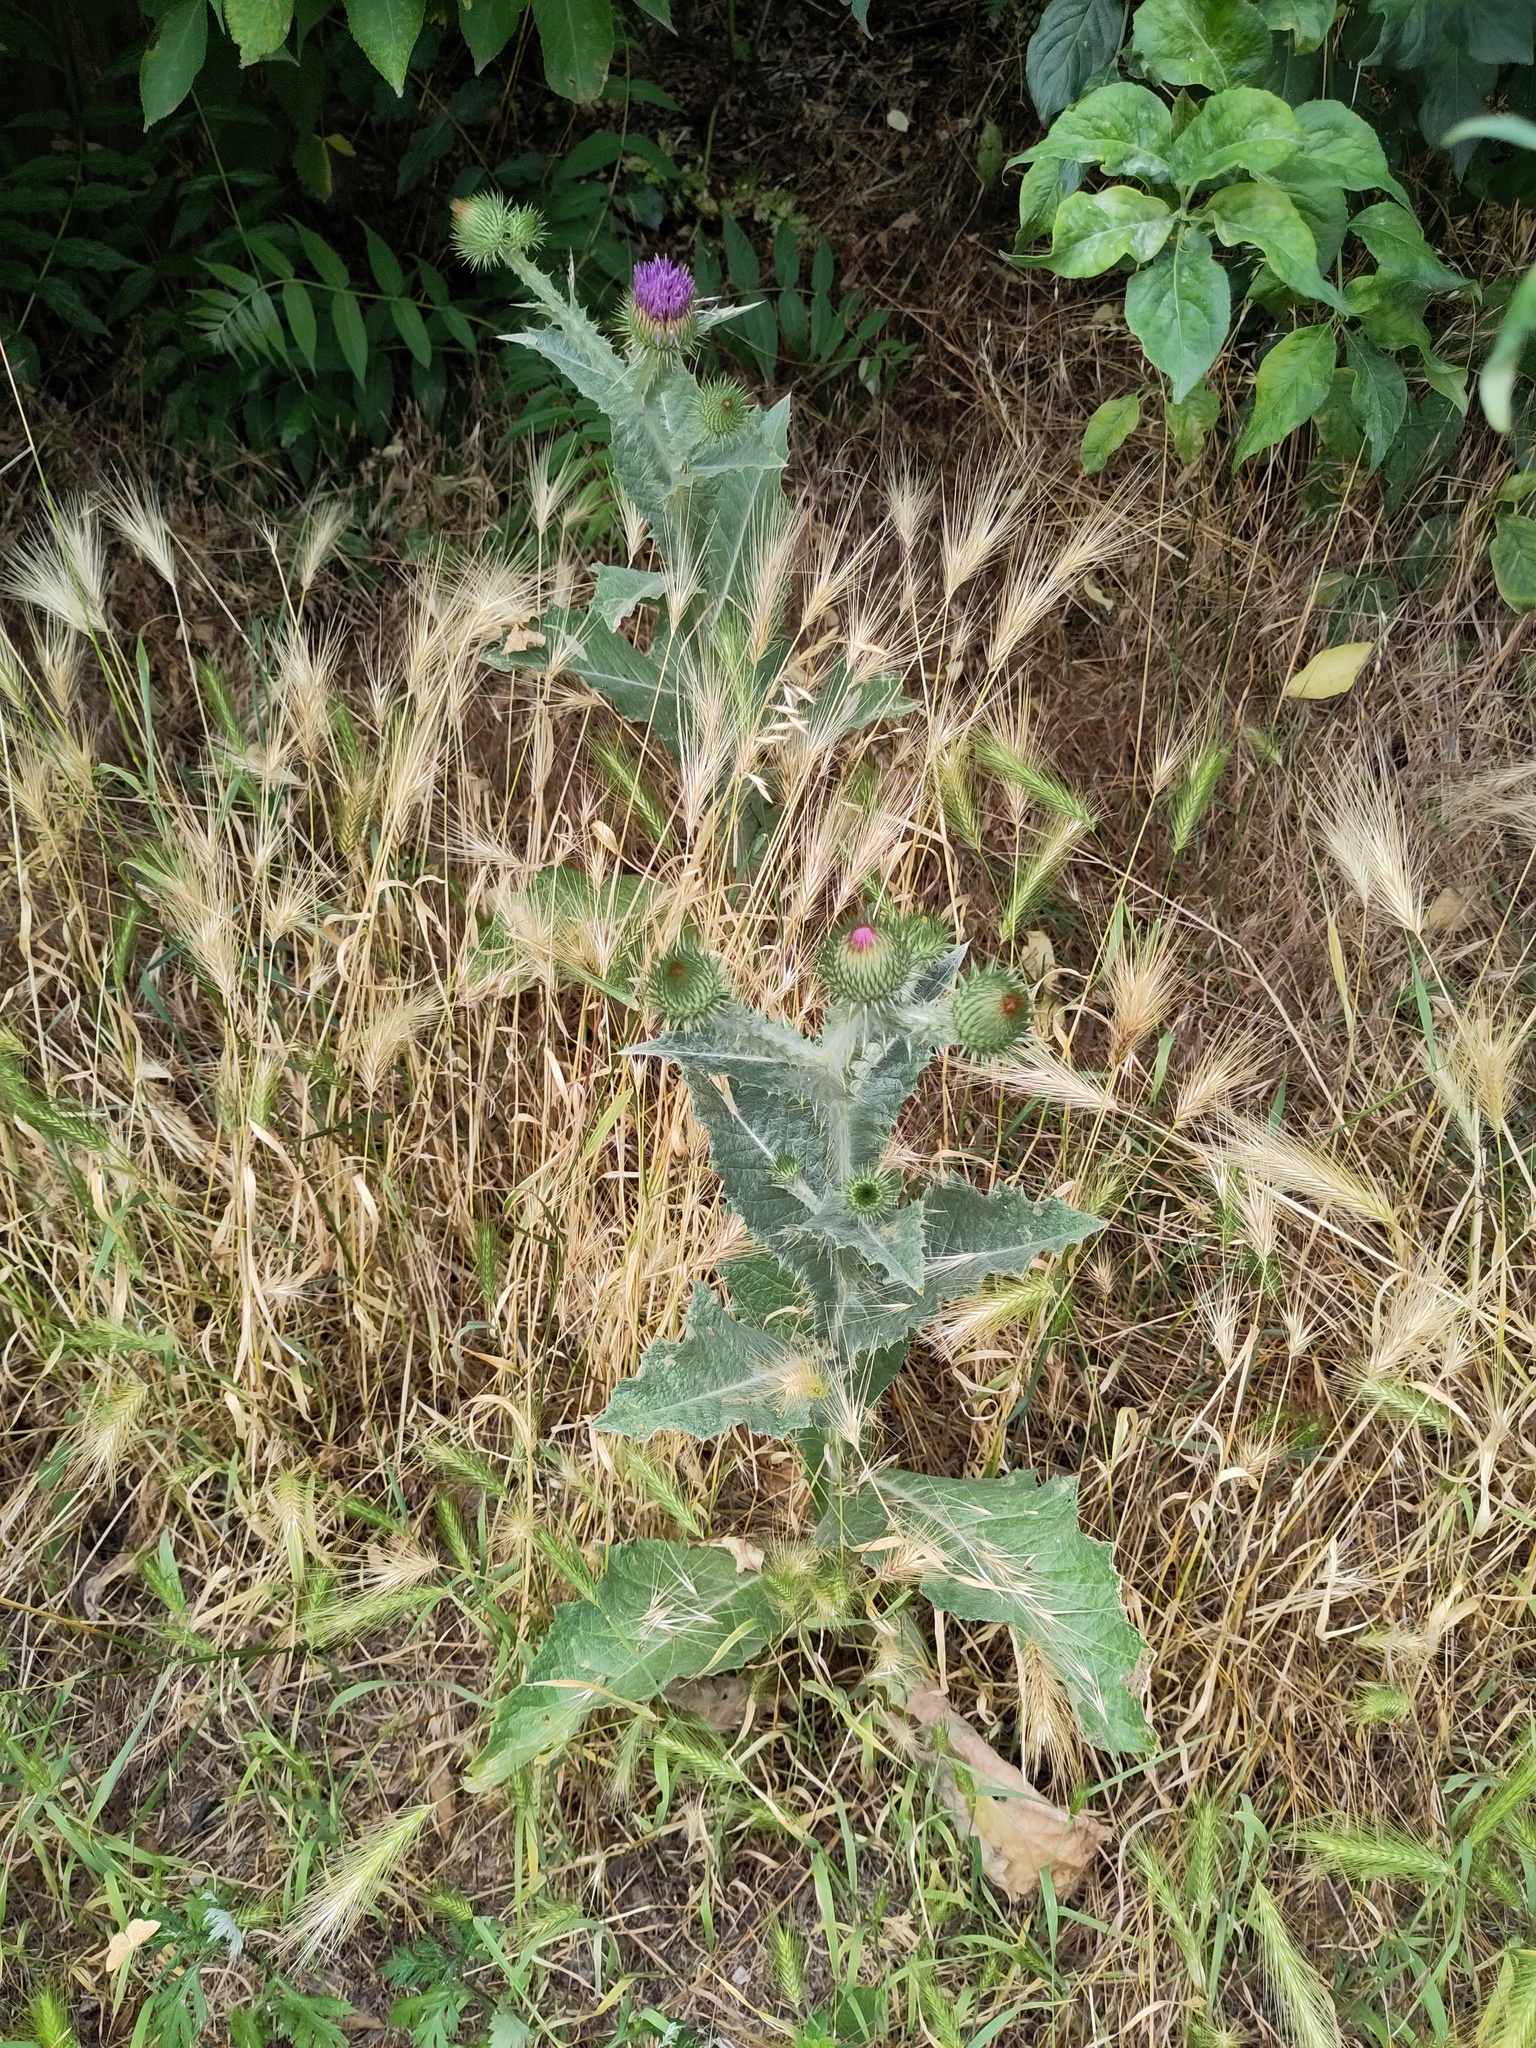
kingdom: Plantae
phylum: Tracheophyta
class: Magnoliopsida
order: Asterales
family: Asteraceae
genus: Onopordum
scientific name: Onopordum acanthium
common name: Scotch thistle
